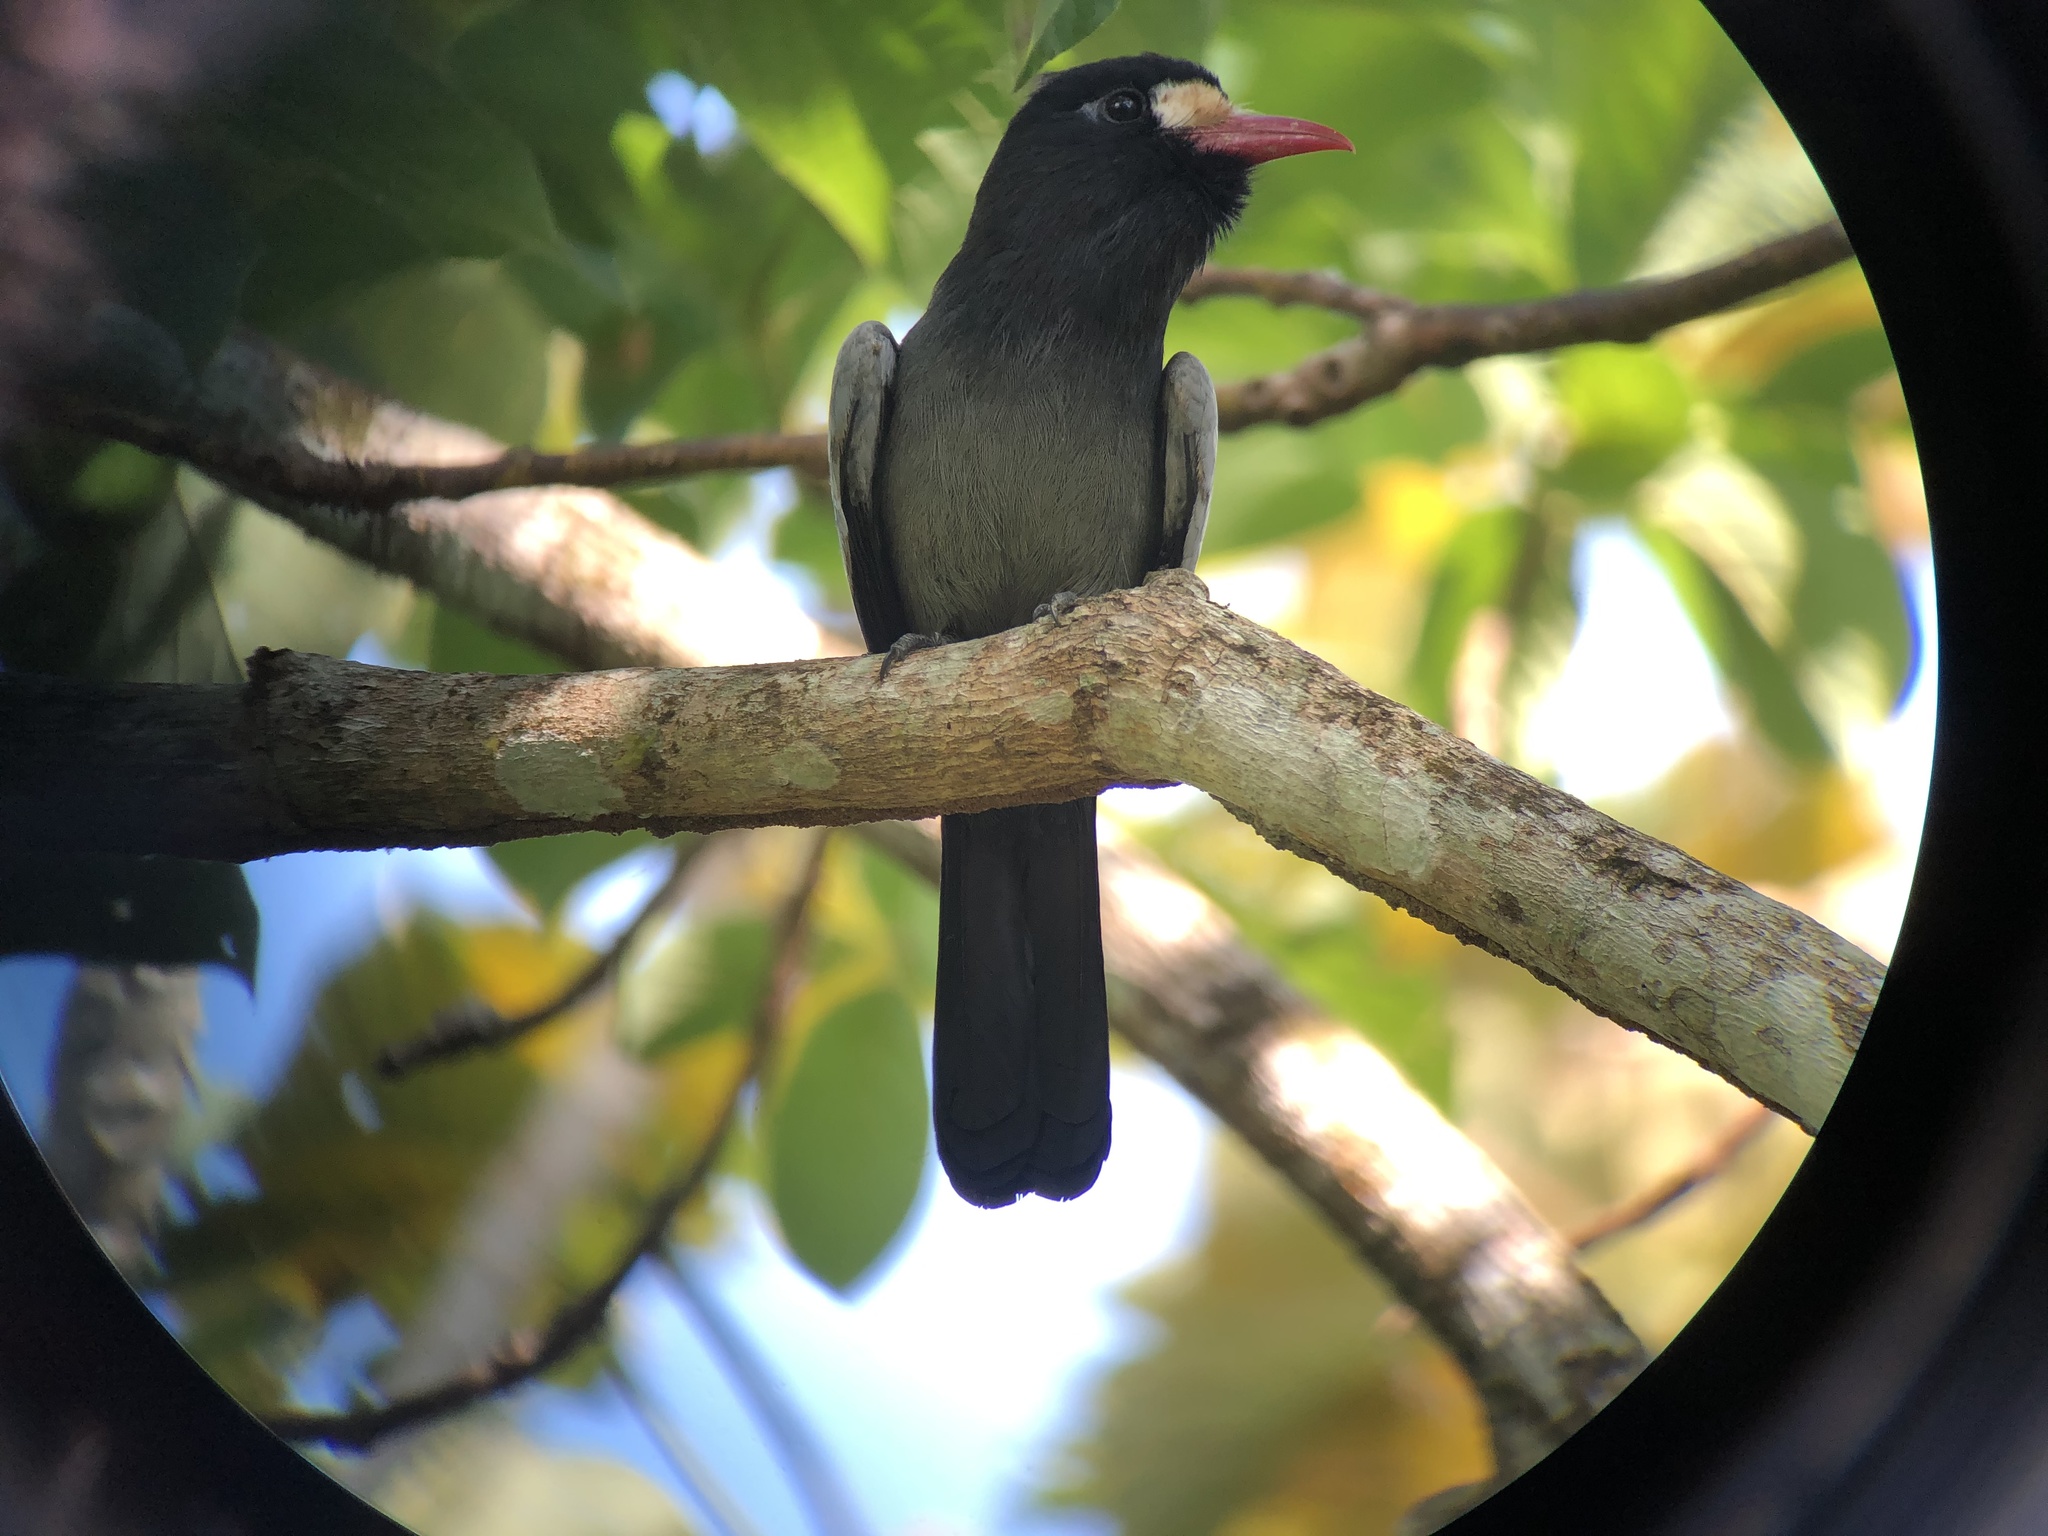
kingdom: Animalia
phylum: Chordata
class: Aves
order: Piciformes
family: Bucconidae
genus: Monasa
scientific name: Monasa morphoeus
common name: White-fronted nunbird
